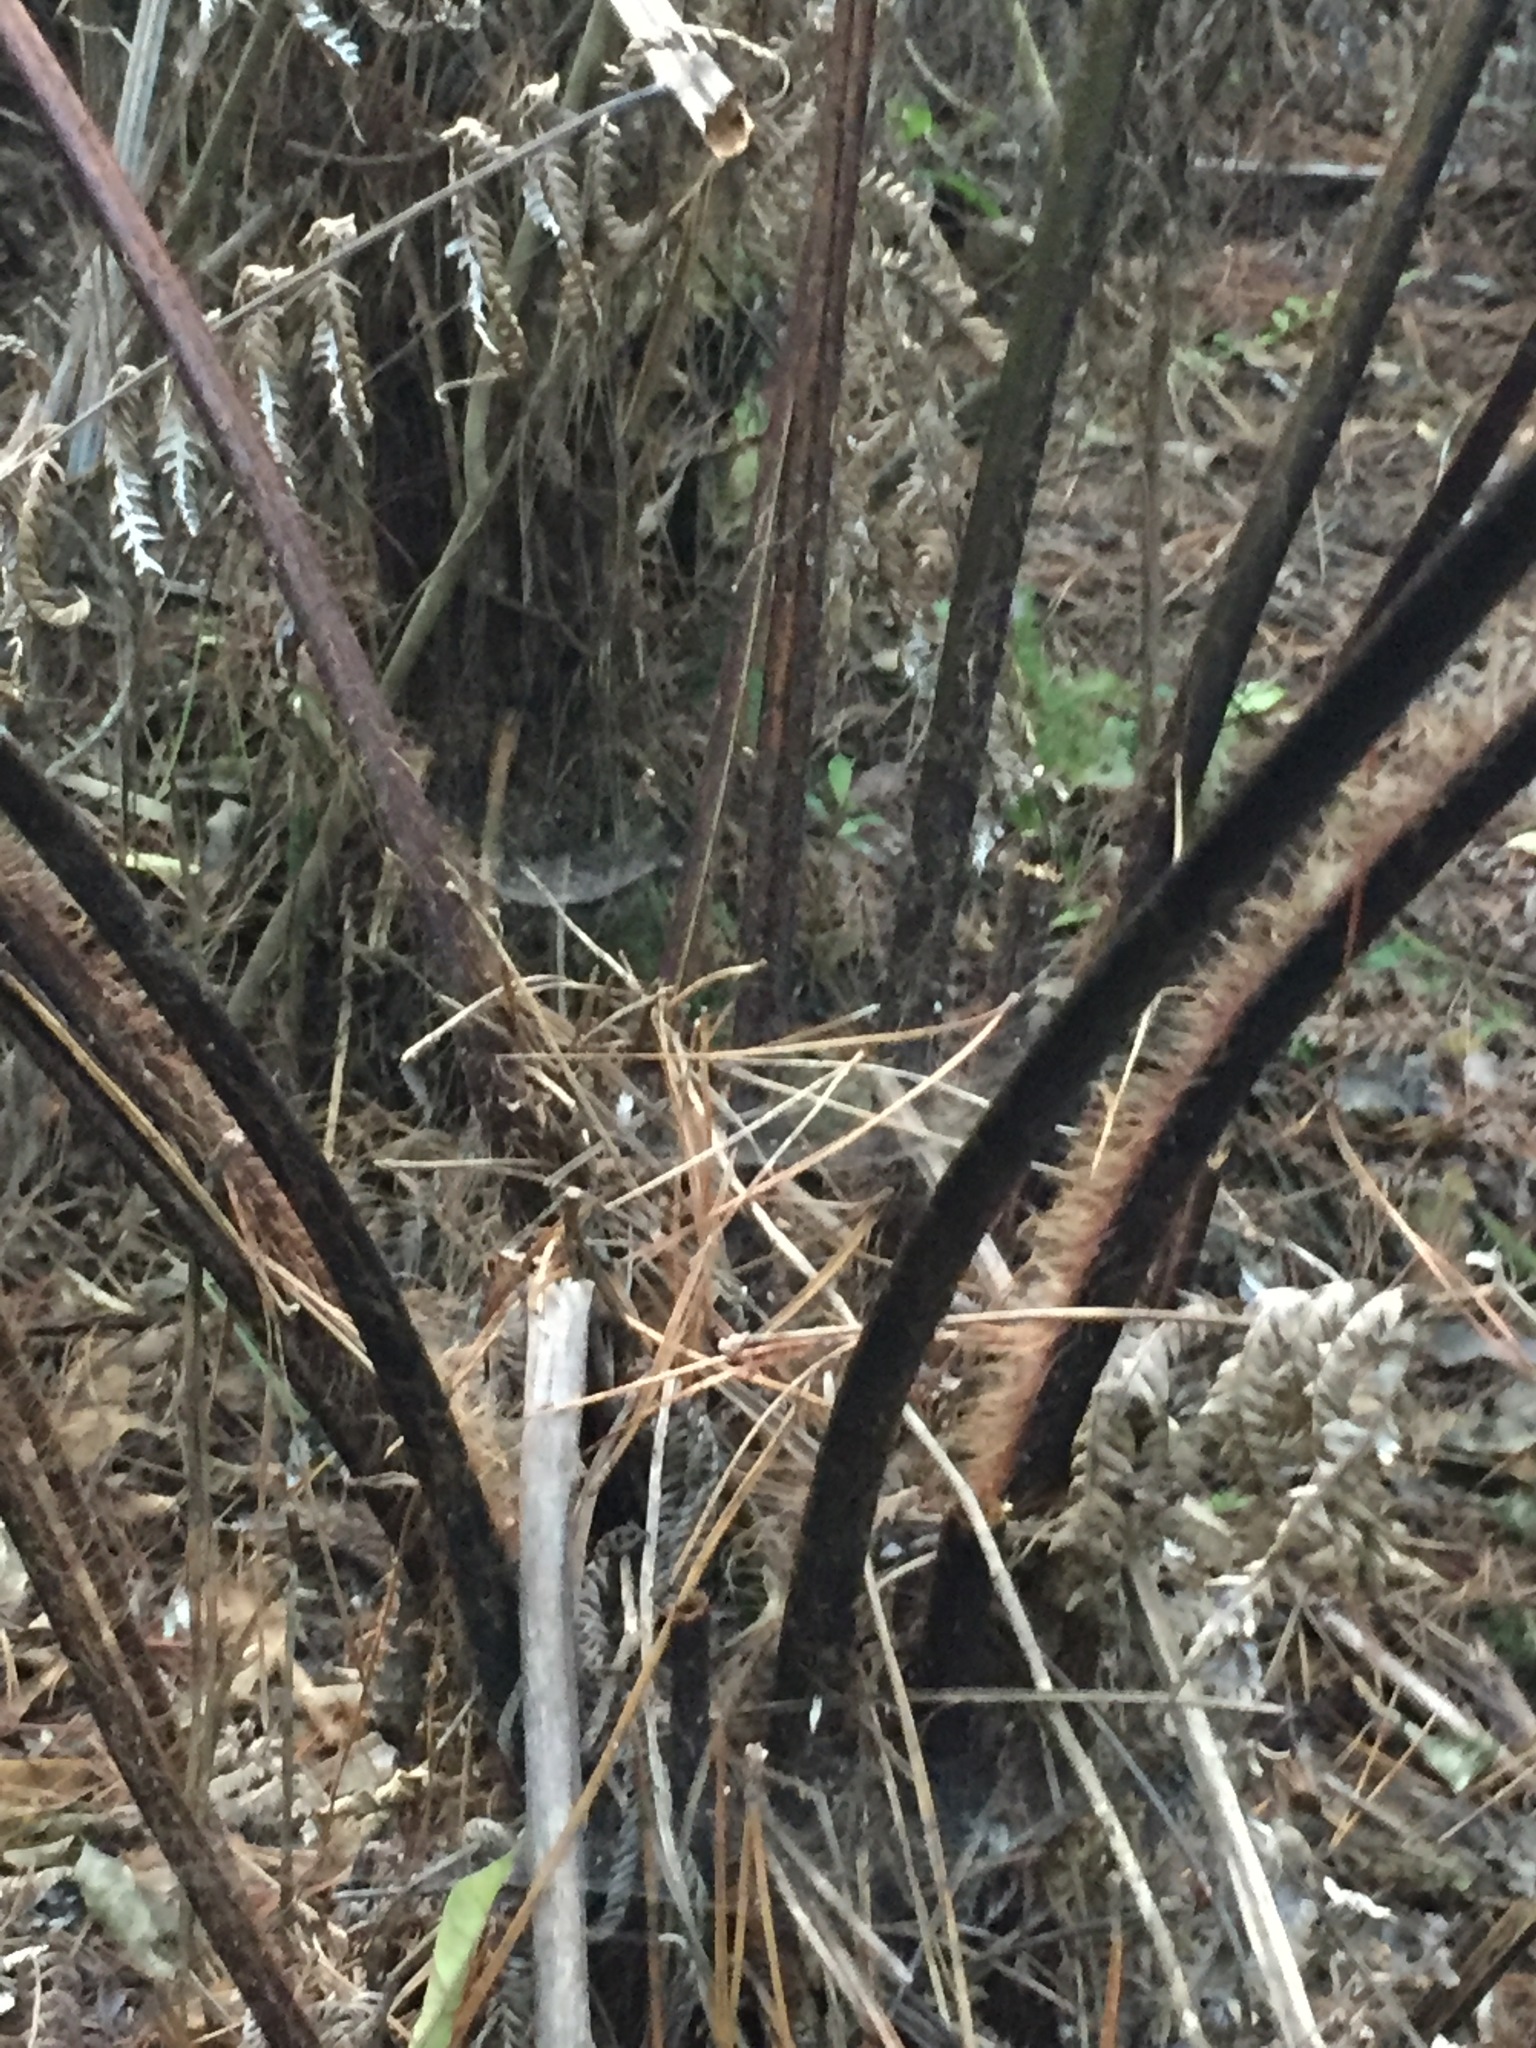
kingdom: Plantae
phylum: Tracheophyta
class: Polypodiopsida
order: Cyatheales
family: Dicksoniaceae
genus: Dicksonia
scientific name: Dicksonia squarrosa
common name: Hard treefern
